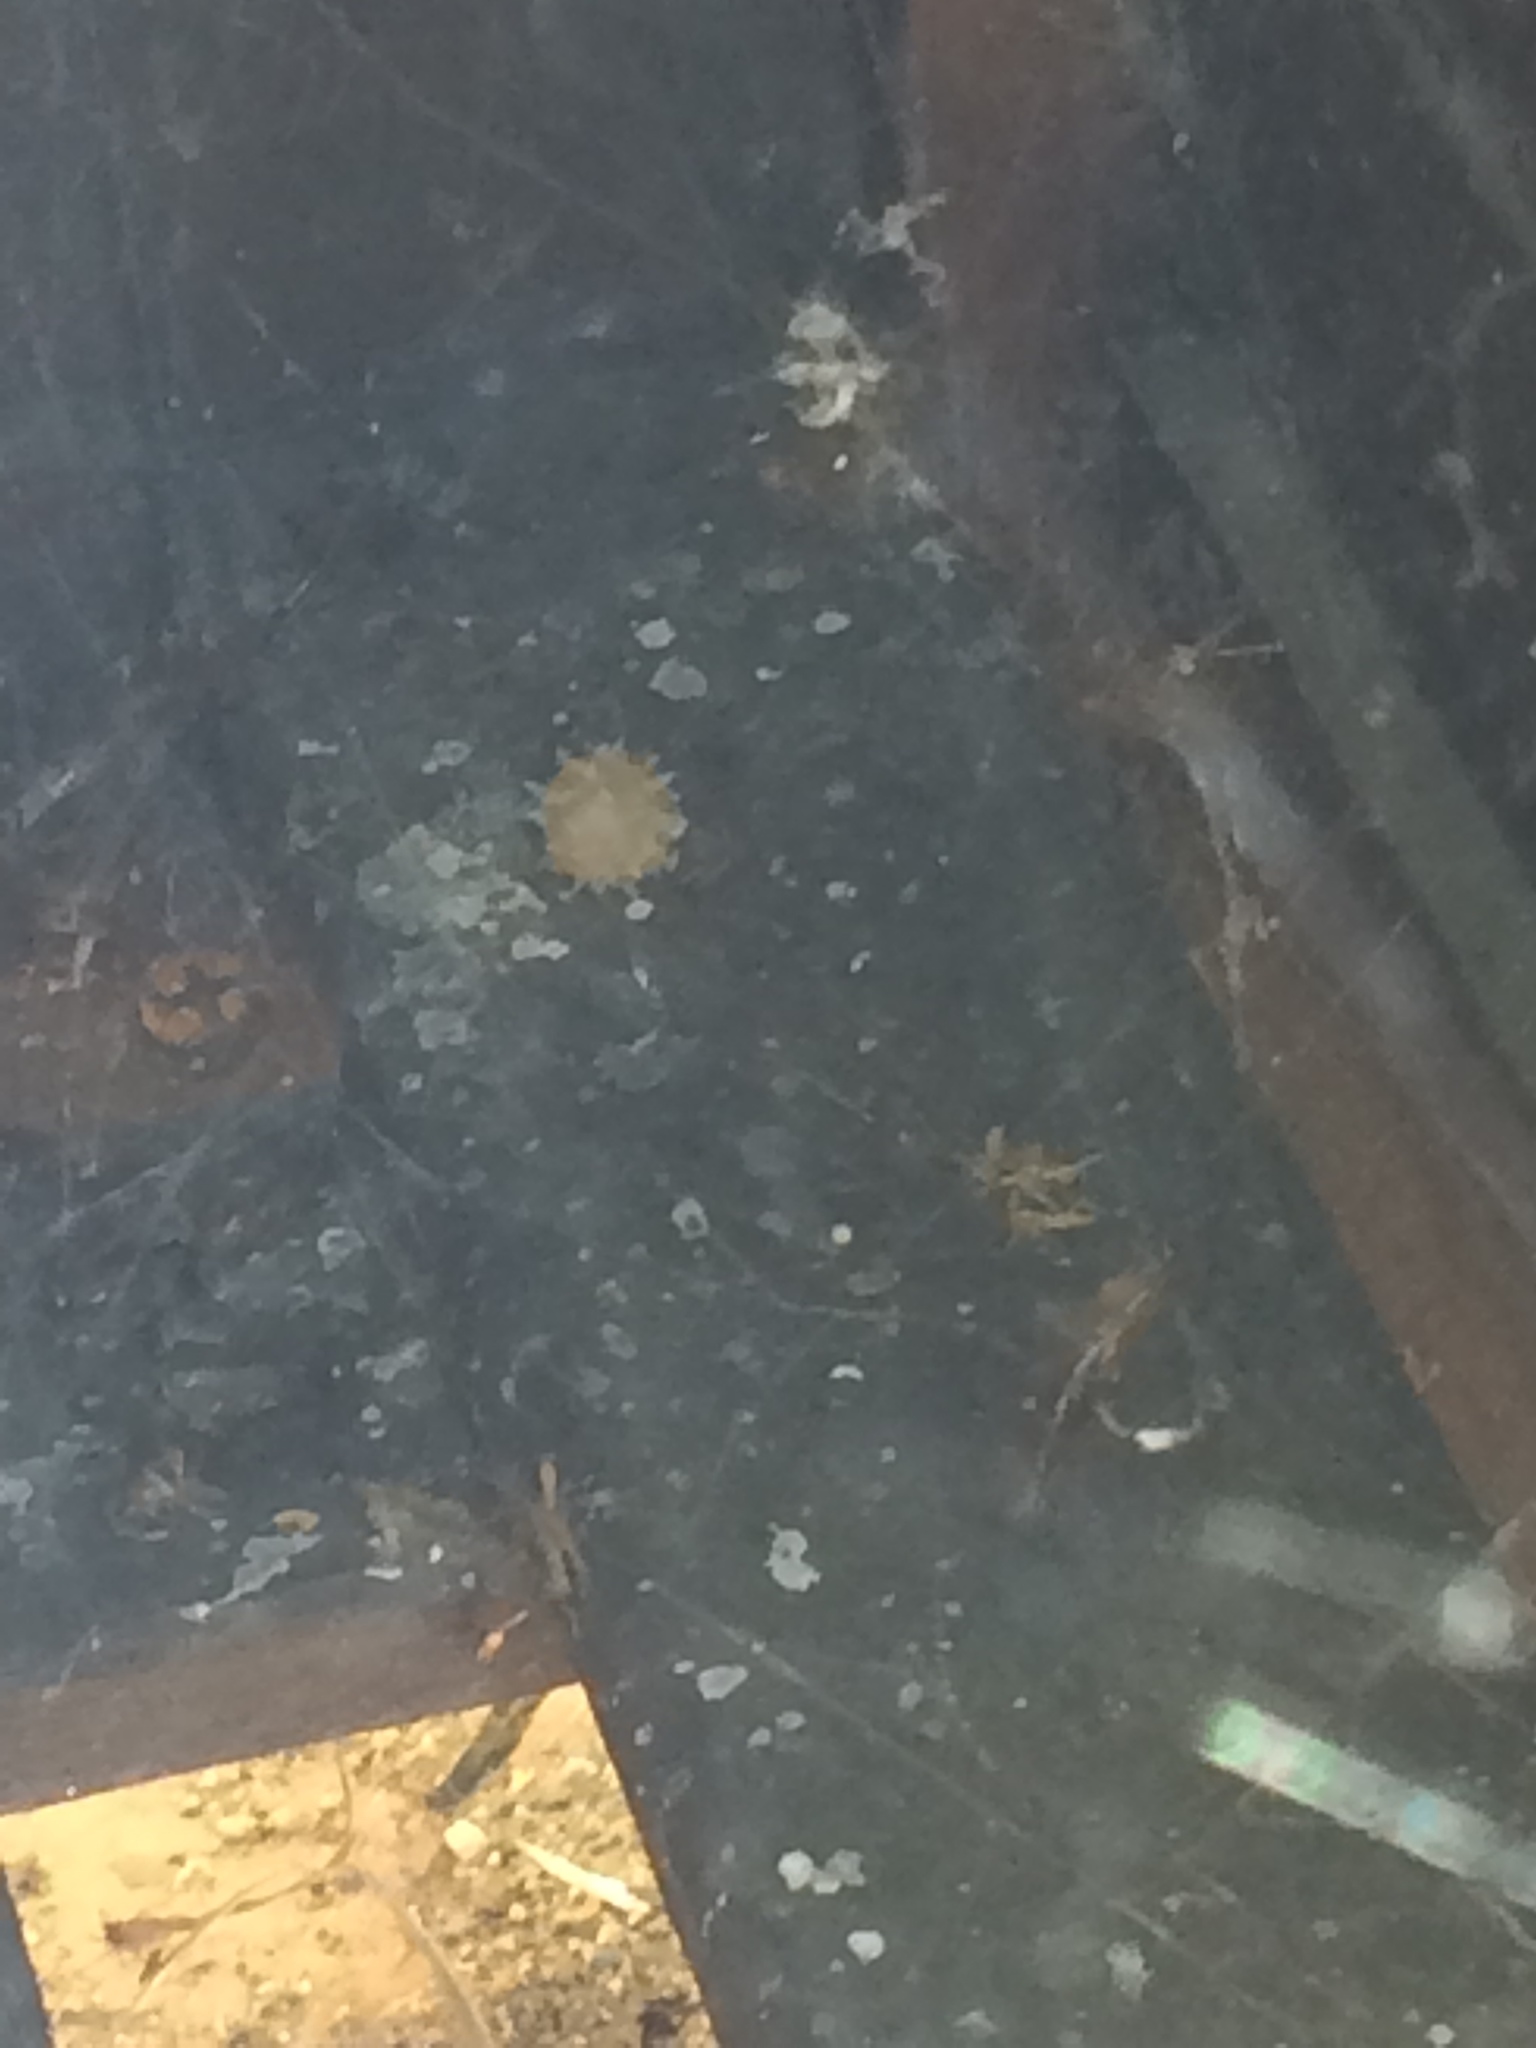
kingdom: Animalia
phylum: Arthropoda
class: Arachnida
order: Araneae
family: Theridiidae
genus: Latrodectus
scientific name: Latrodectus geometricus
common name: Brown widow spider
